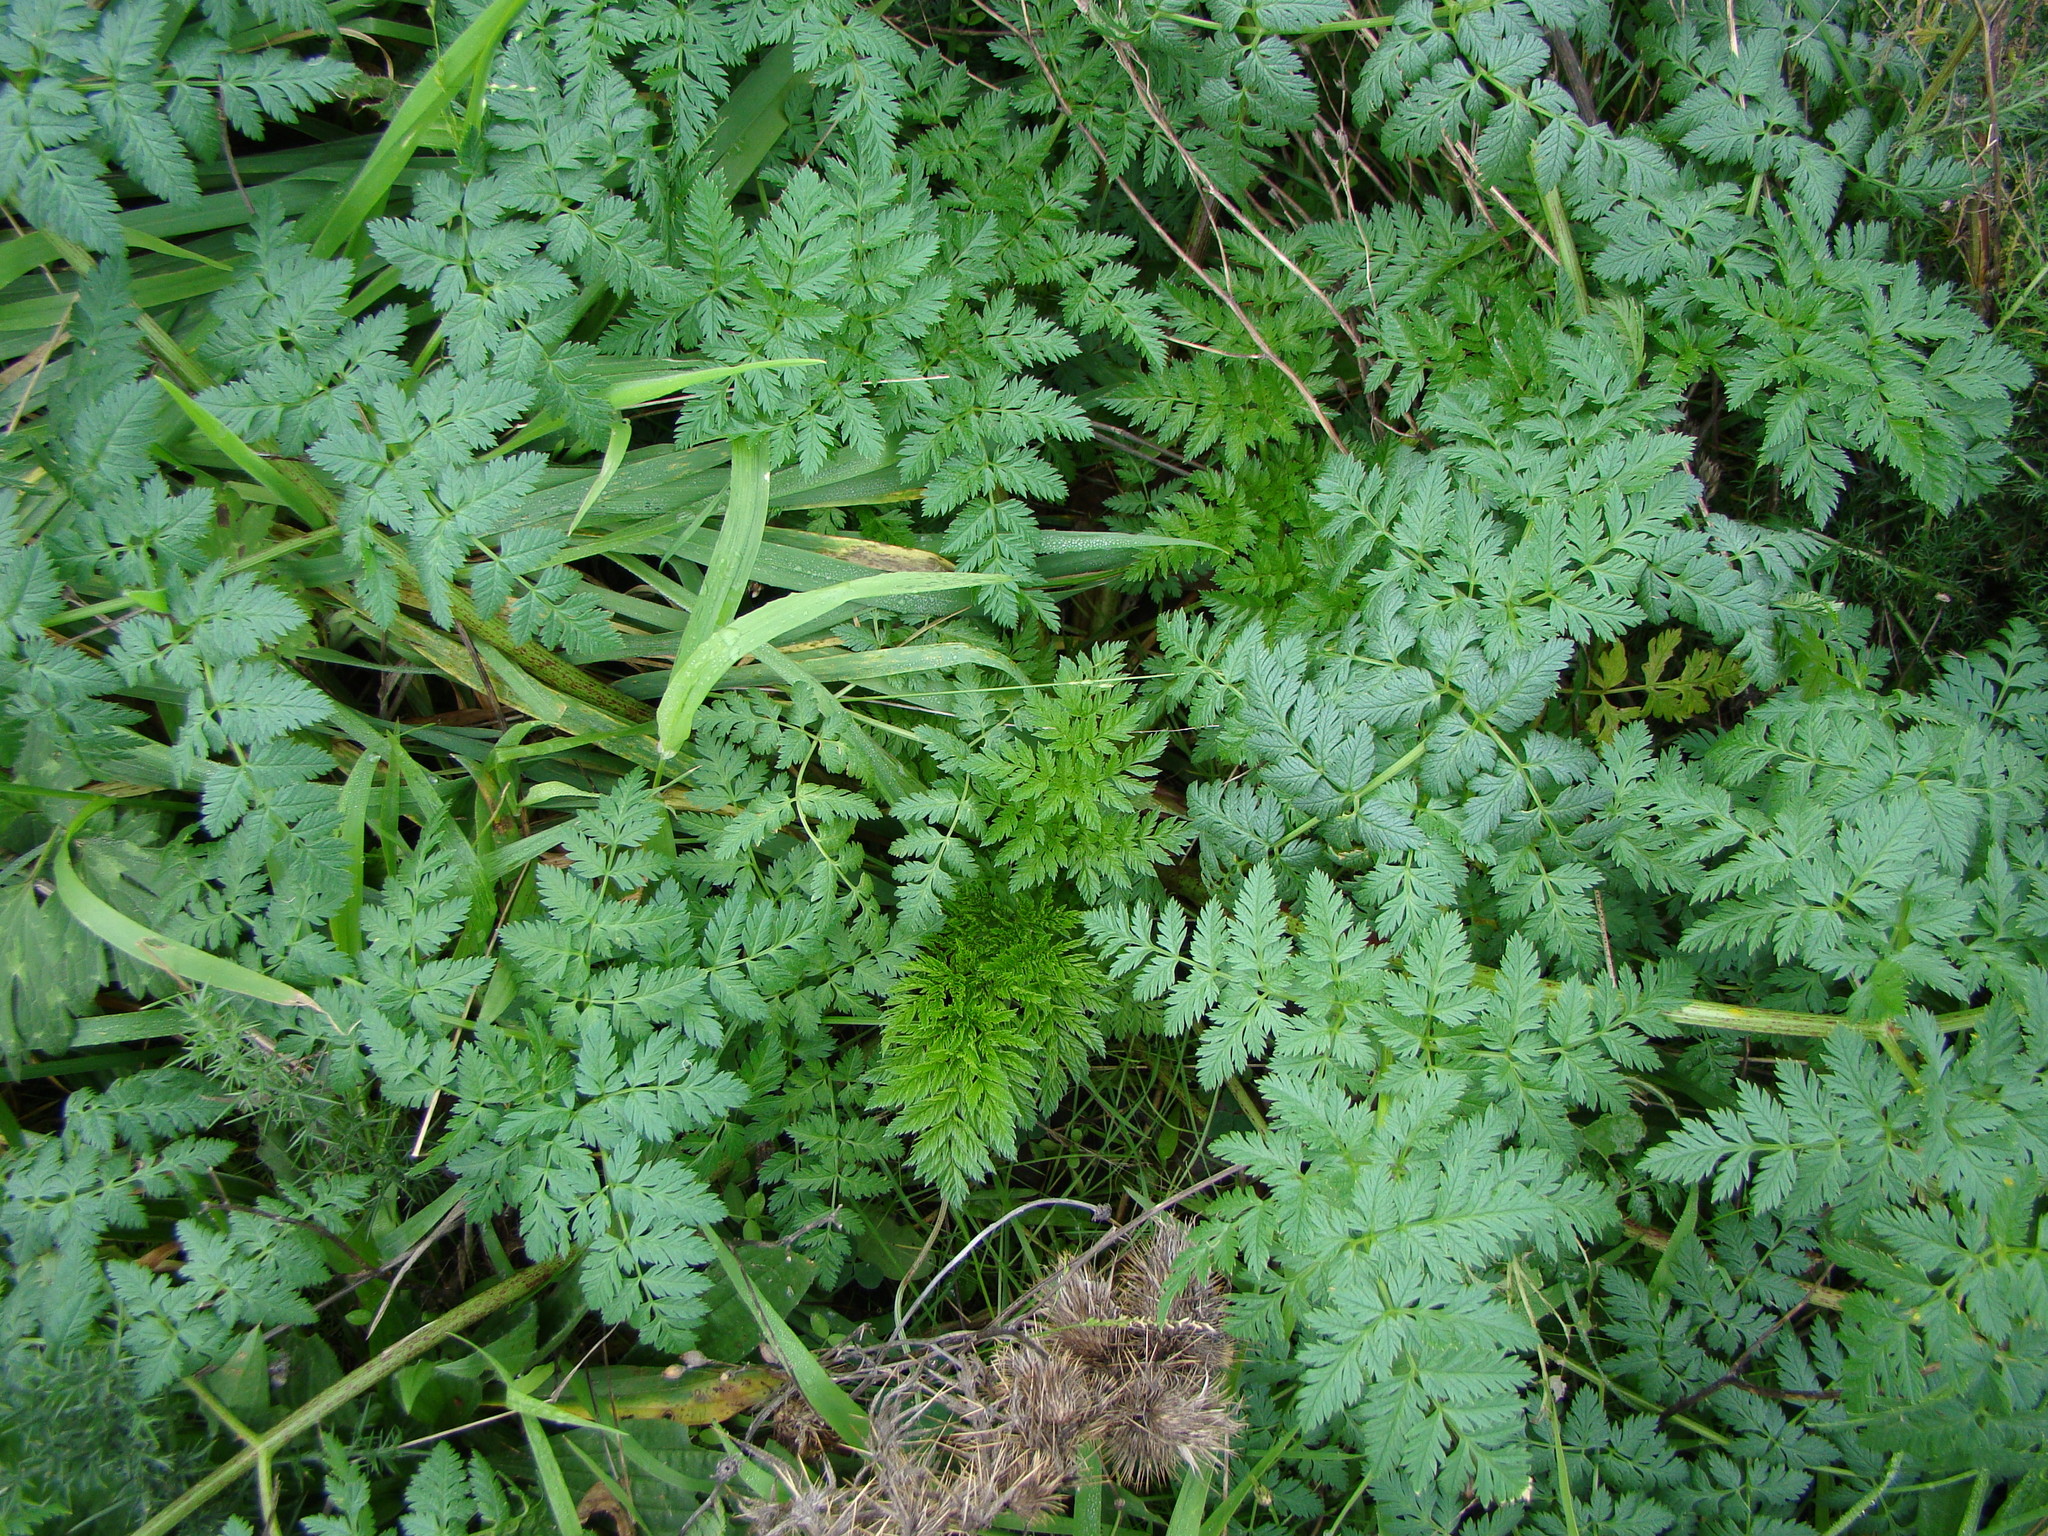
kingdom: Plantae
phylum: Tracheophyta
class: Magnoliopsida
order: Apiales
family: Apiaceae
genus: Conium
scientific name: Conium maculatum
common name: Hemlock
